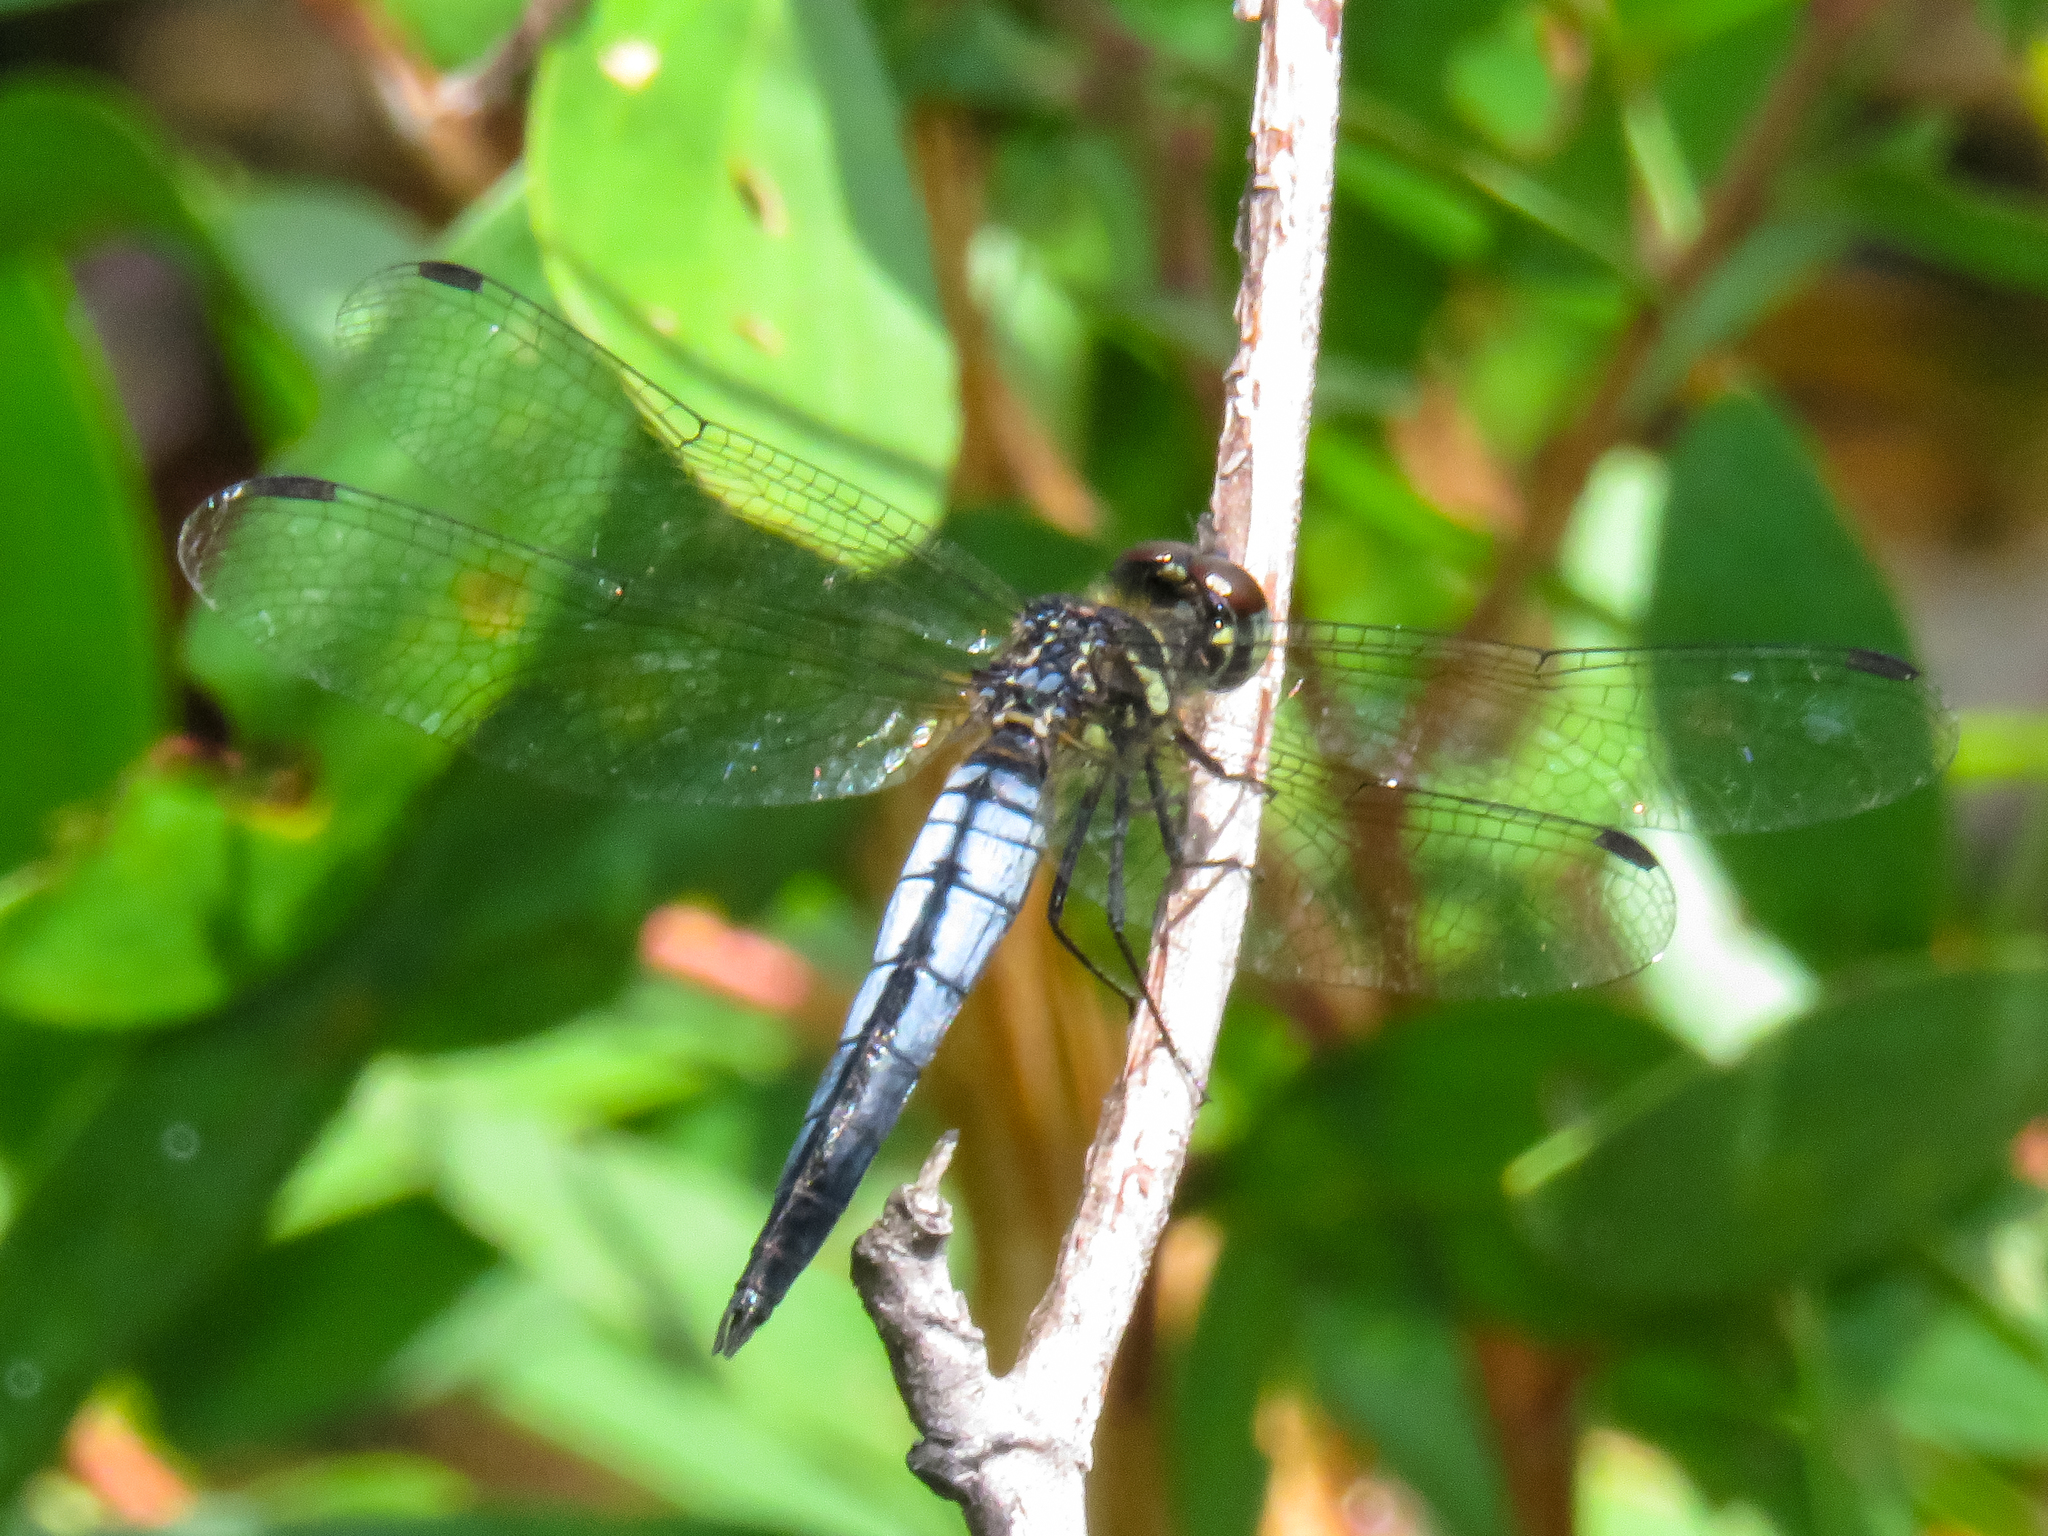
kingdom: Animalia
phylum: Arthropoda
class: Insecta
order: Odonata
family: Libellulidae
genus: Lyriothemis
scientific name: Lyriothemis mortoni
